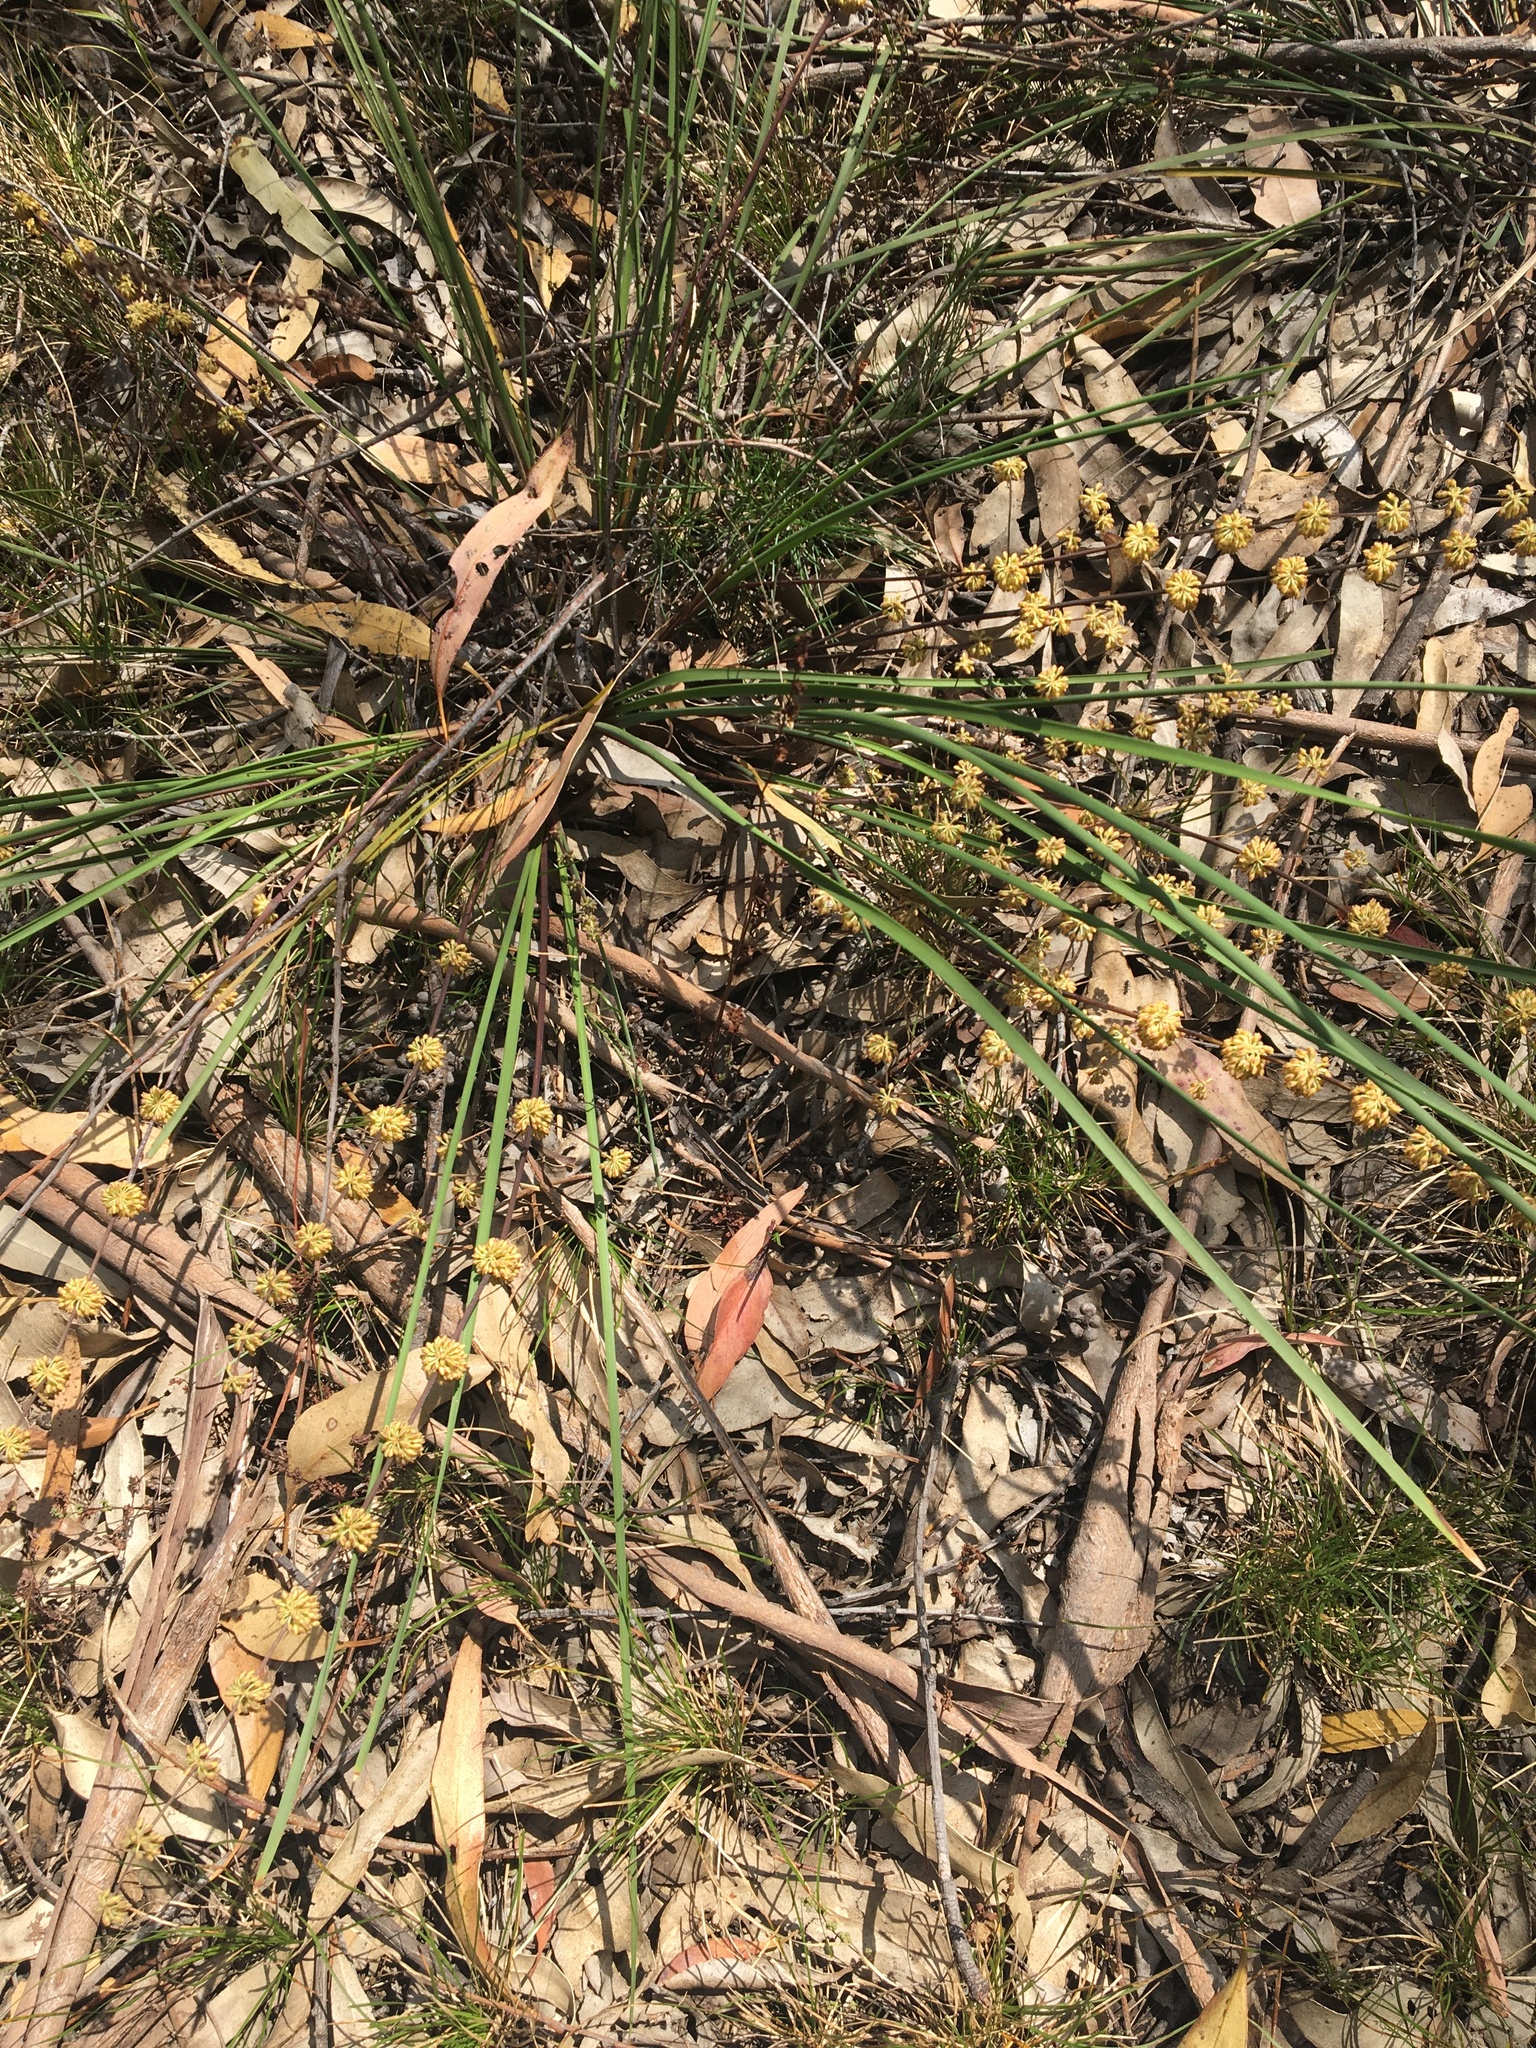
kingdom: Plantae
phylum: Tracheophyta
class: Liliopsida
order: Asparagales
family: Asparagaceae
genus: Lomandra
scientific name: Lomandra multiflora
